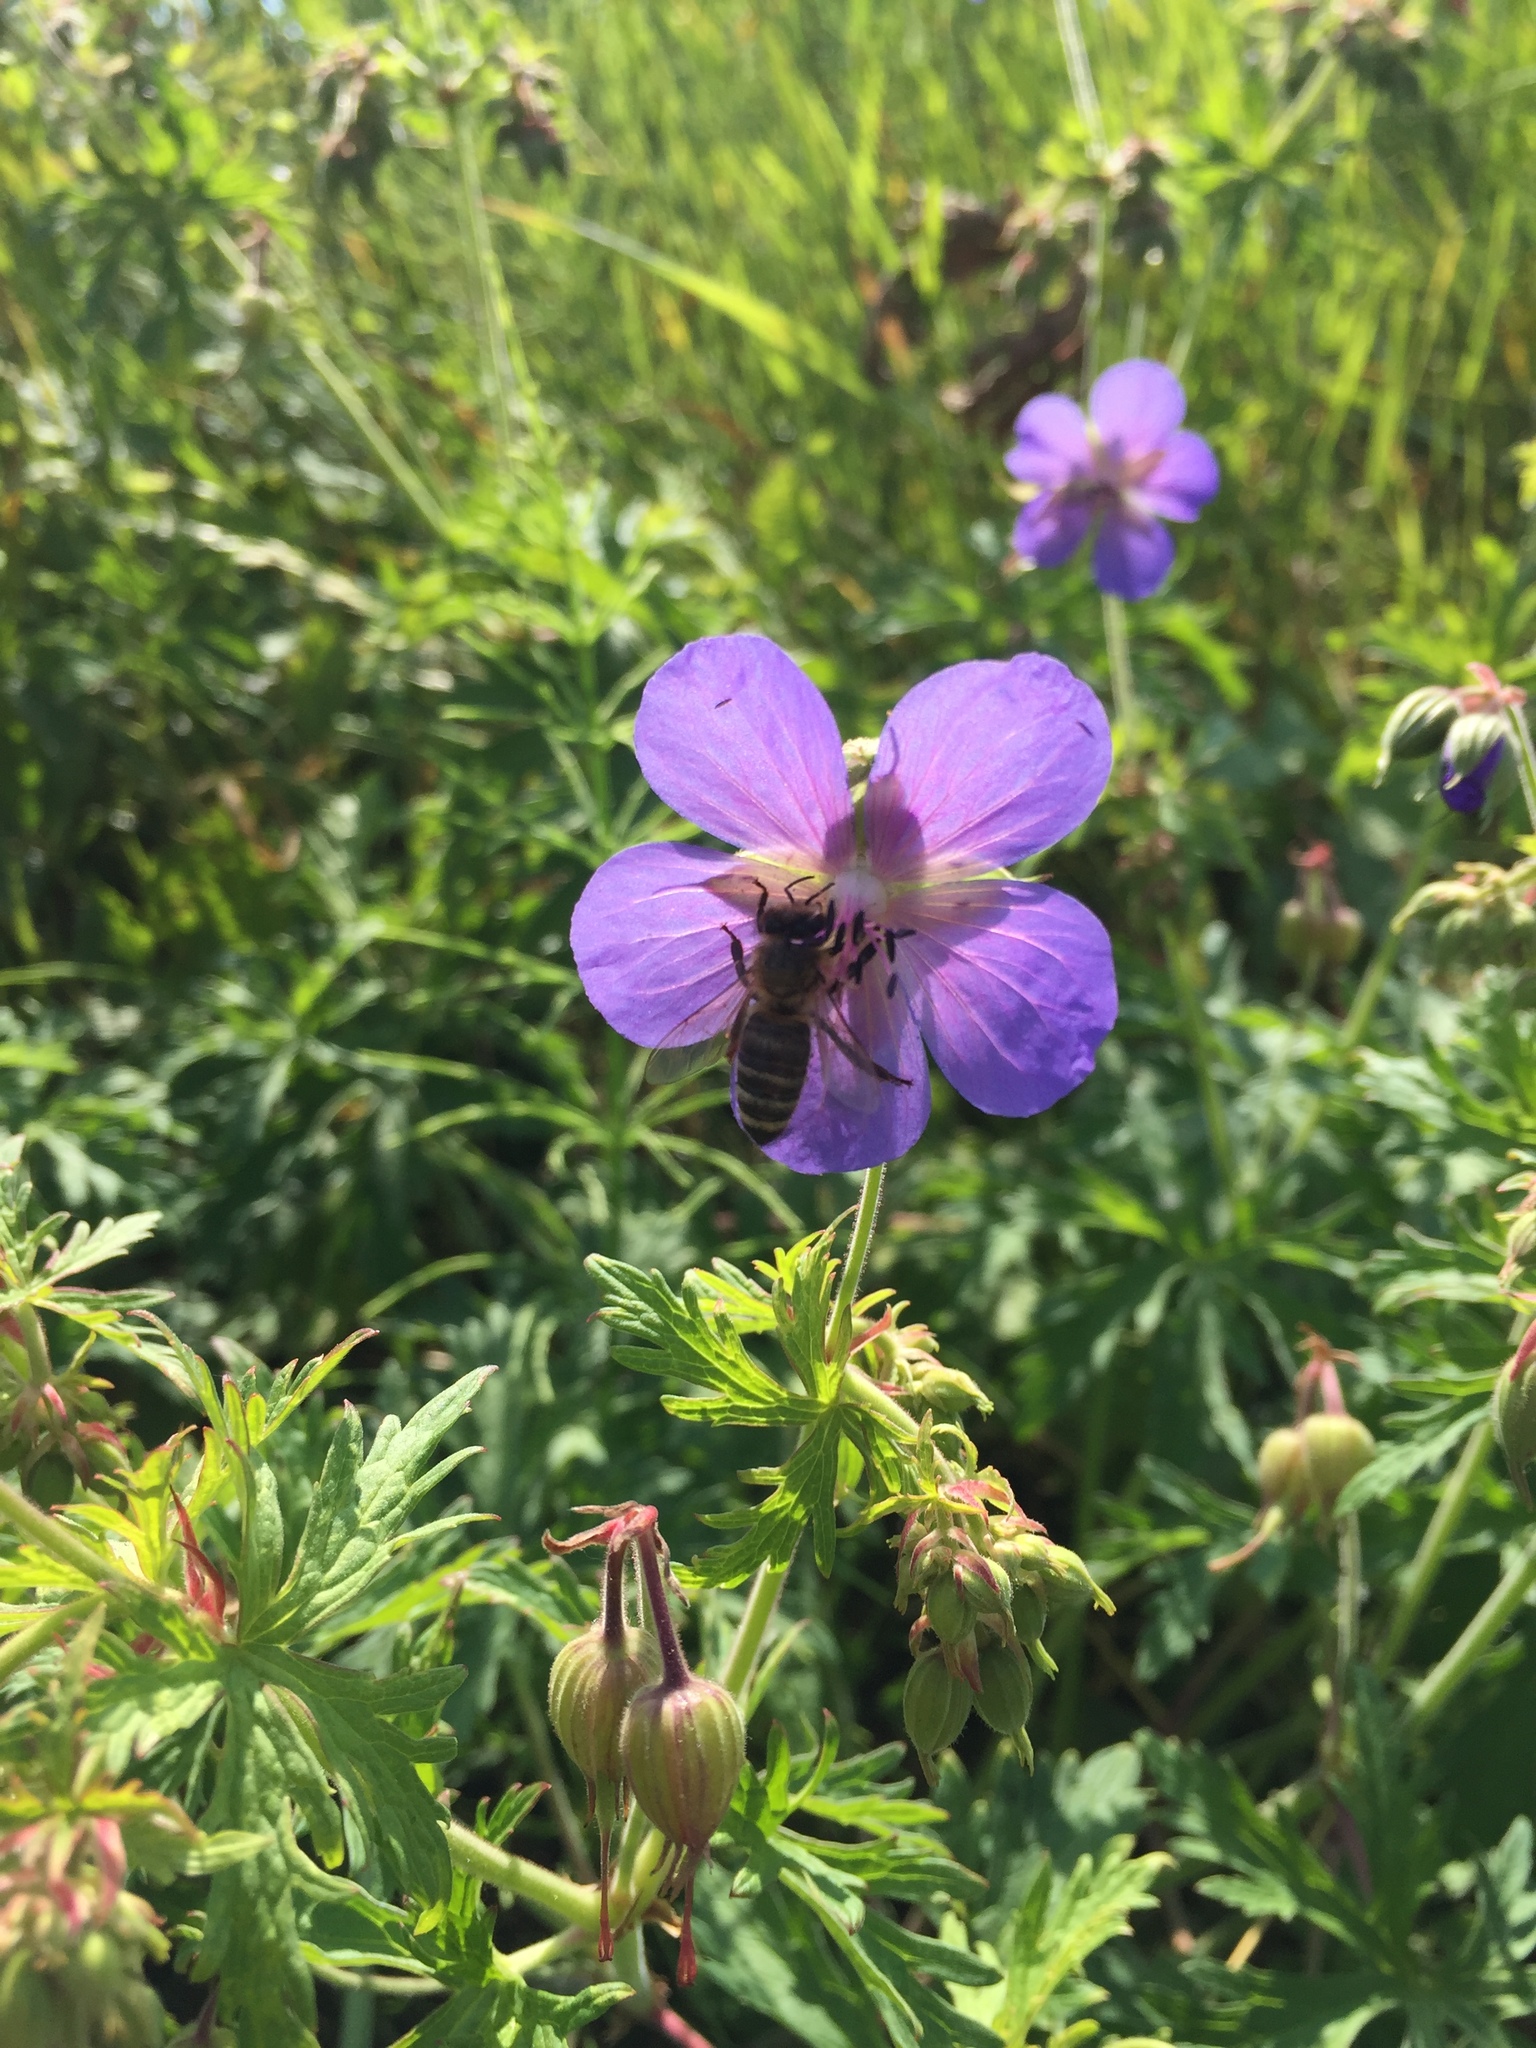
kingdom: Plantae
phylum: Tracheophyta
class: Magnoliopsida
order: Geraniales
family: Geraniaceae
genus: Geranium
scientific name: Geranium pratense
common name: Meadow crane's-bill
